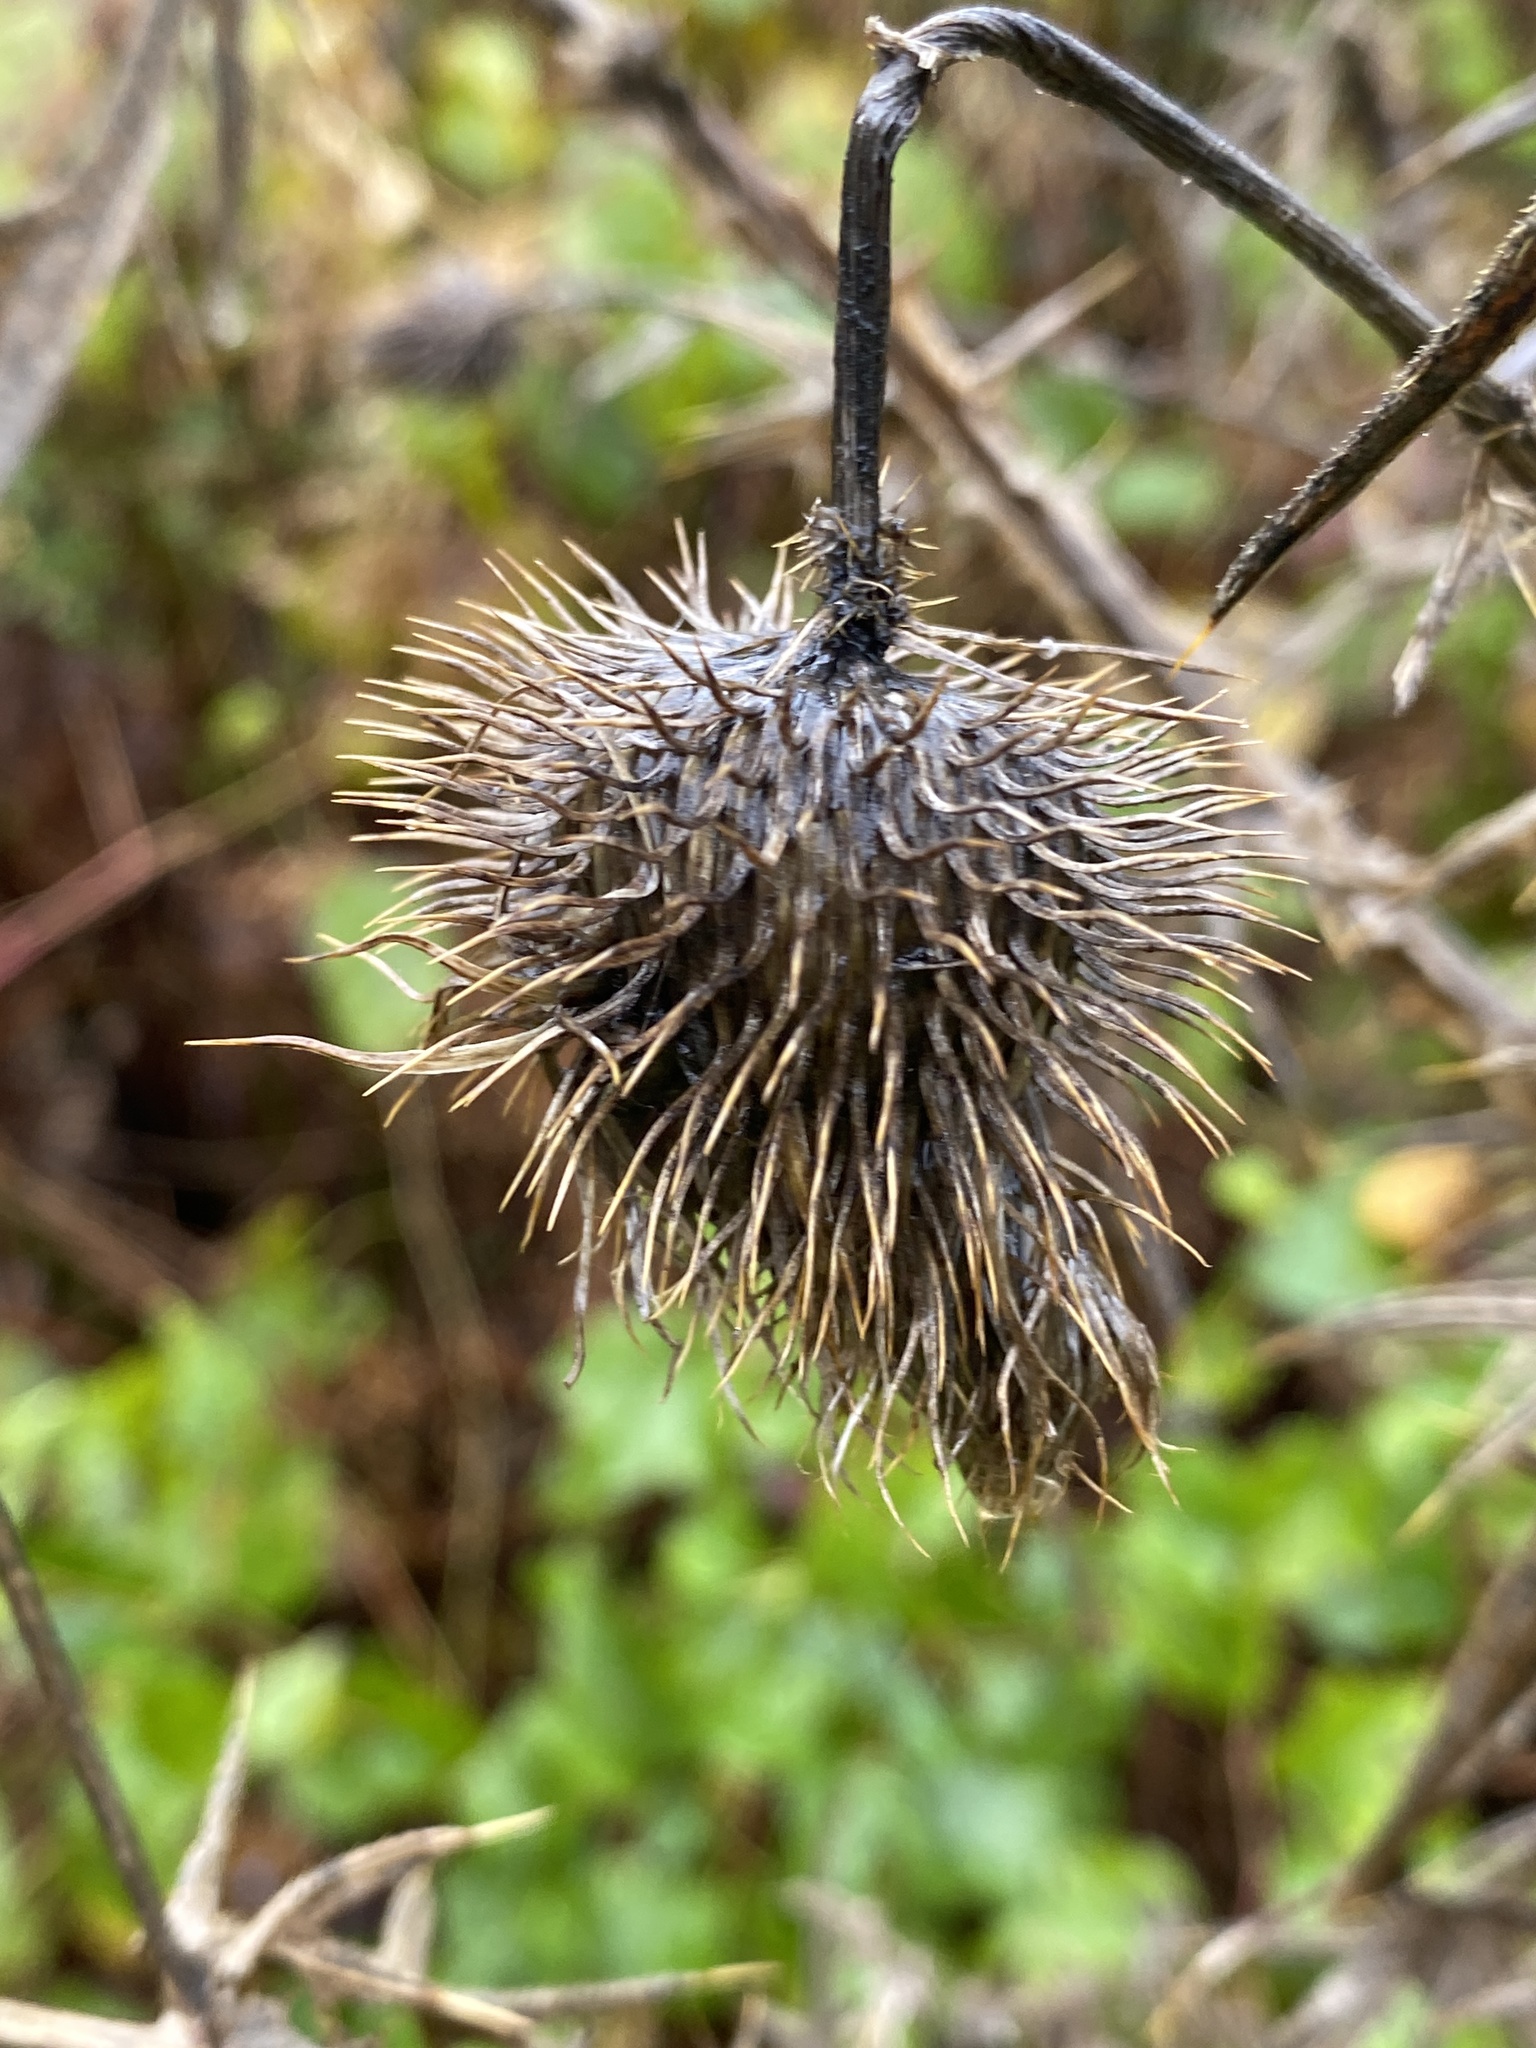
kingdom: Plantae
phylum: Tracheophyta
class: Magnoliopsida
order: Asterales
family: Asteraceae
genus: Cirsium
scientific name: Cirsium vulgare
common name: Bull thistle
